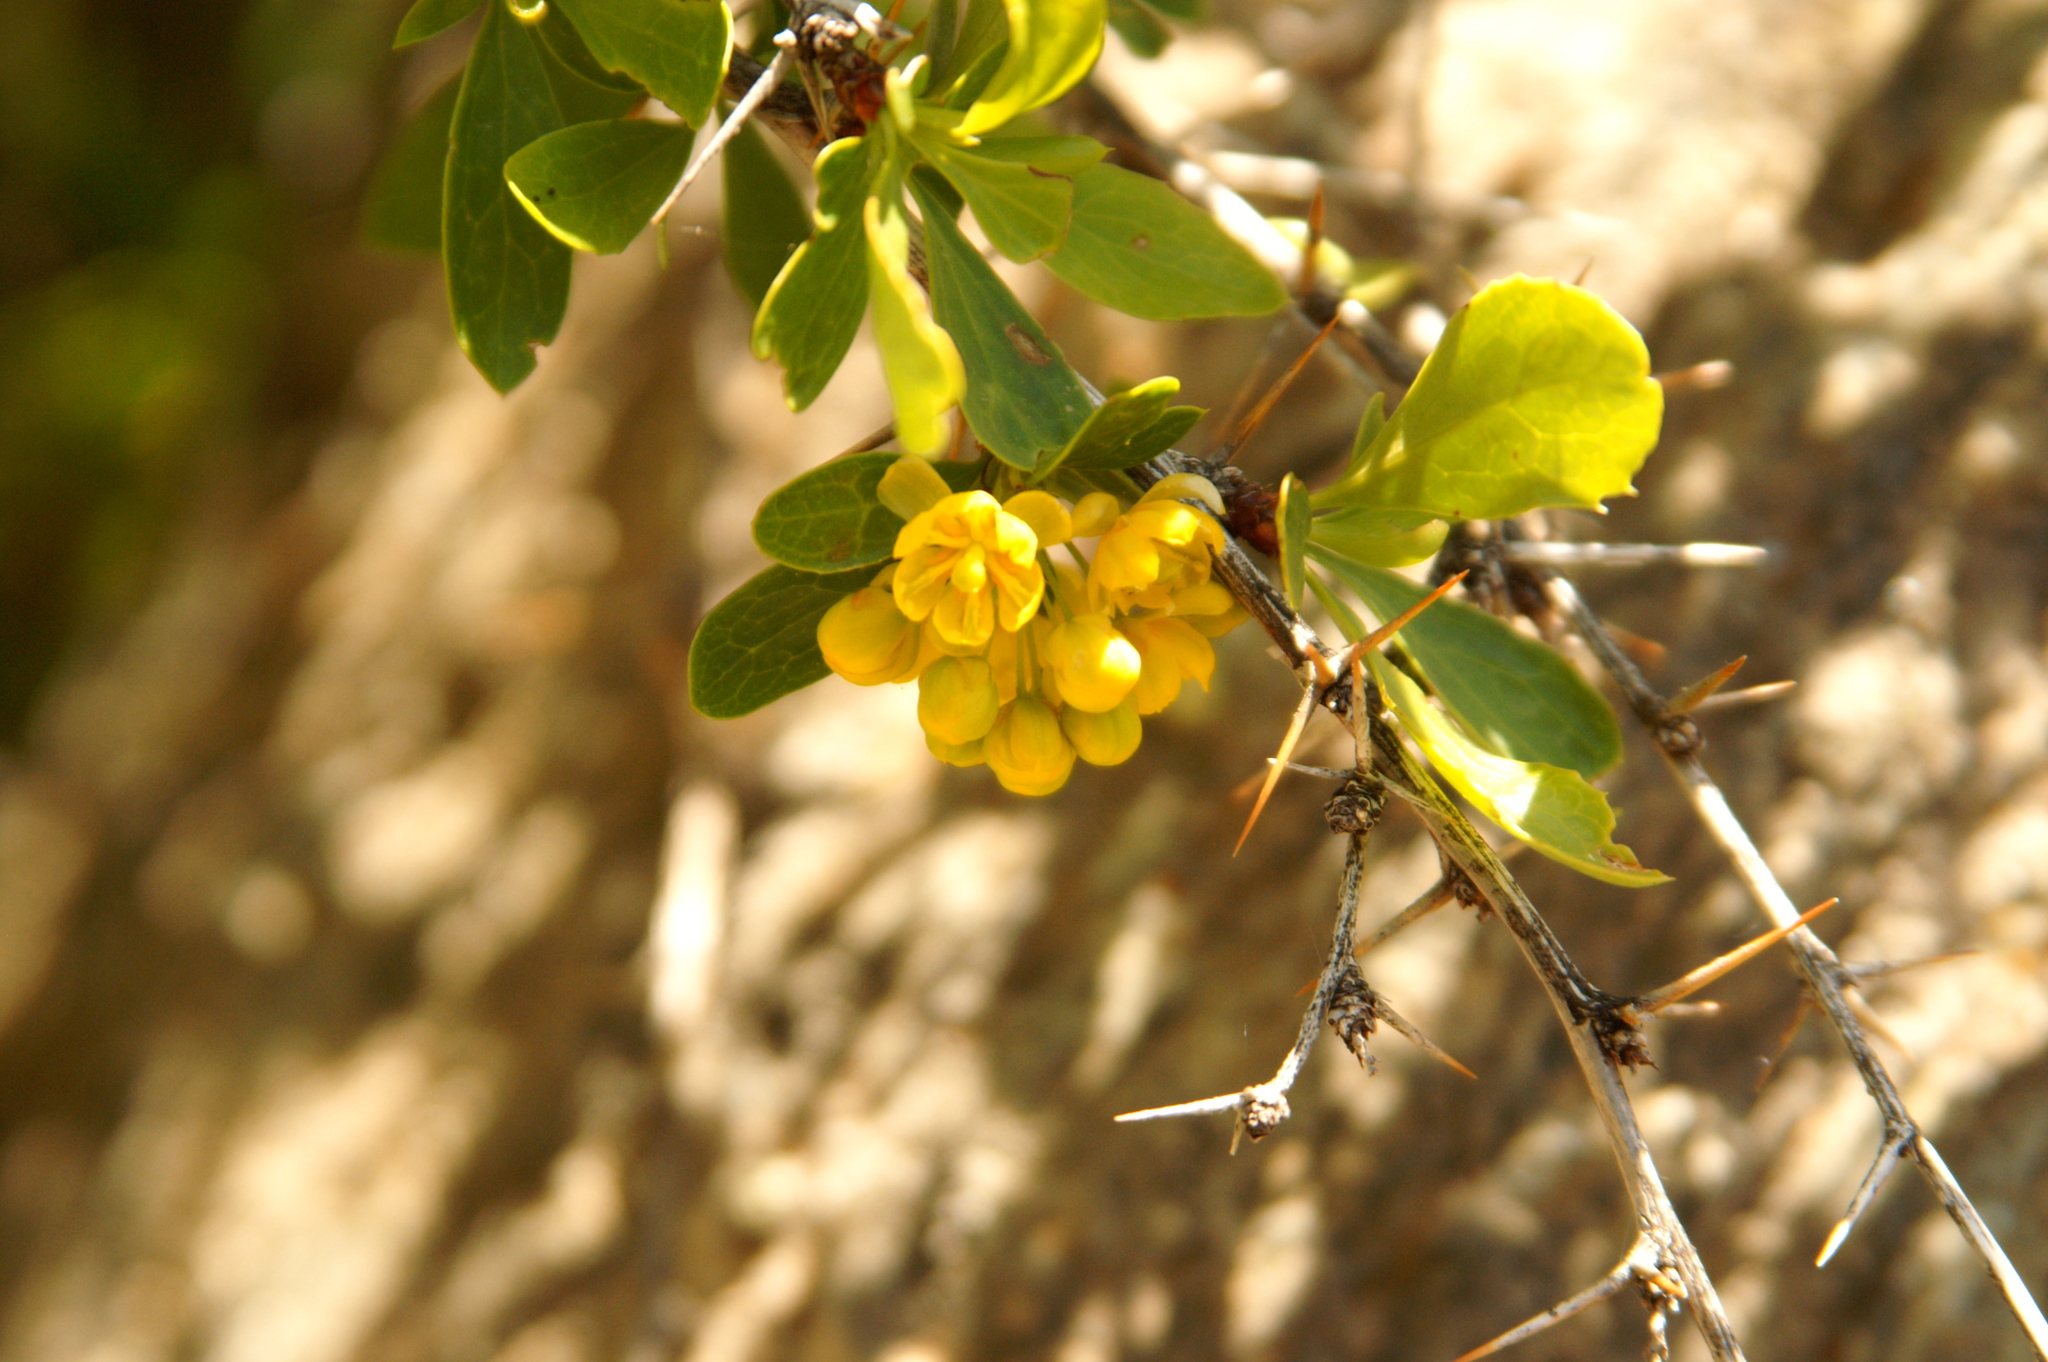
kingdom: Plantae
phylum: Tracheophyta
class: Magnoliopsida
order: Ranunculales
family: Berberidaceae
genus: Berberis
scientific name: Berberis hispanica
